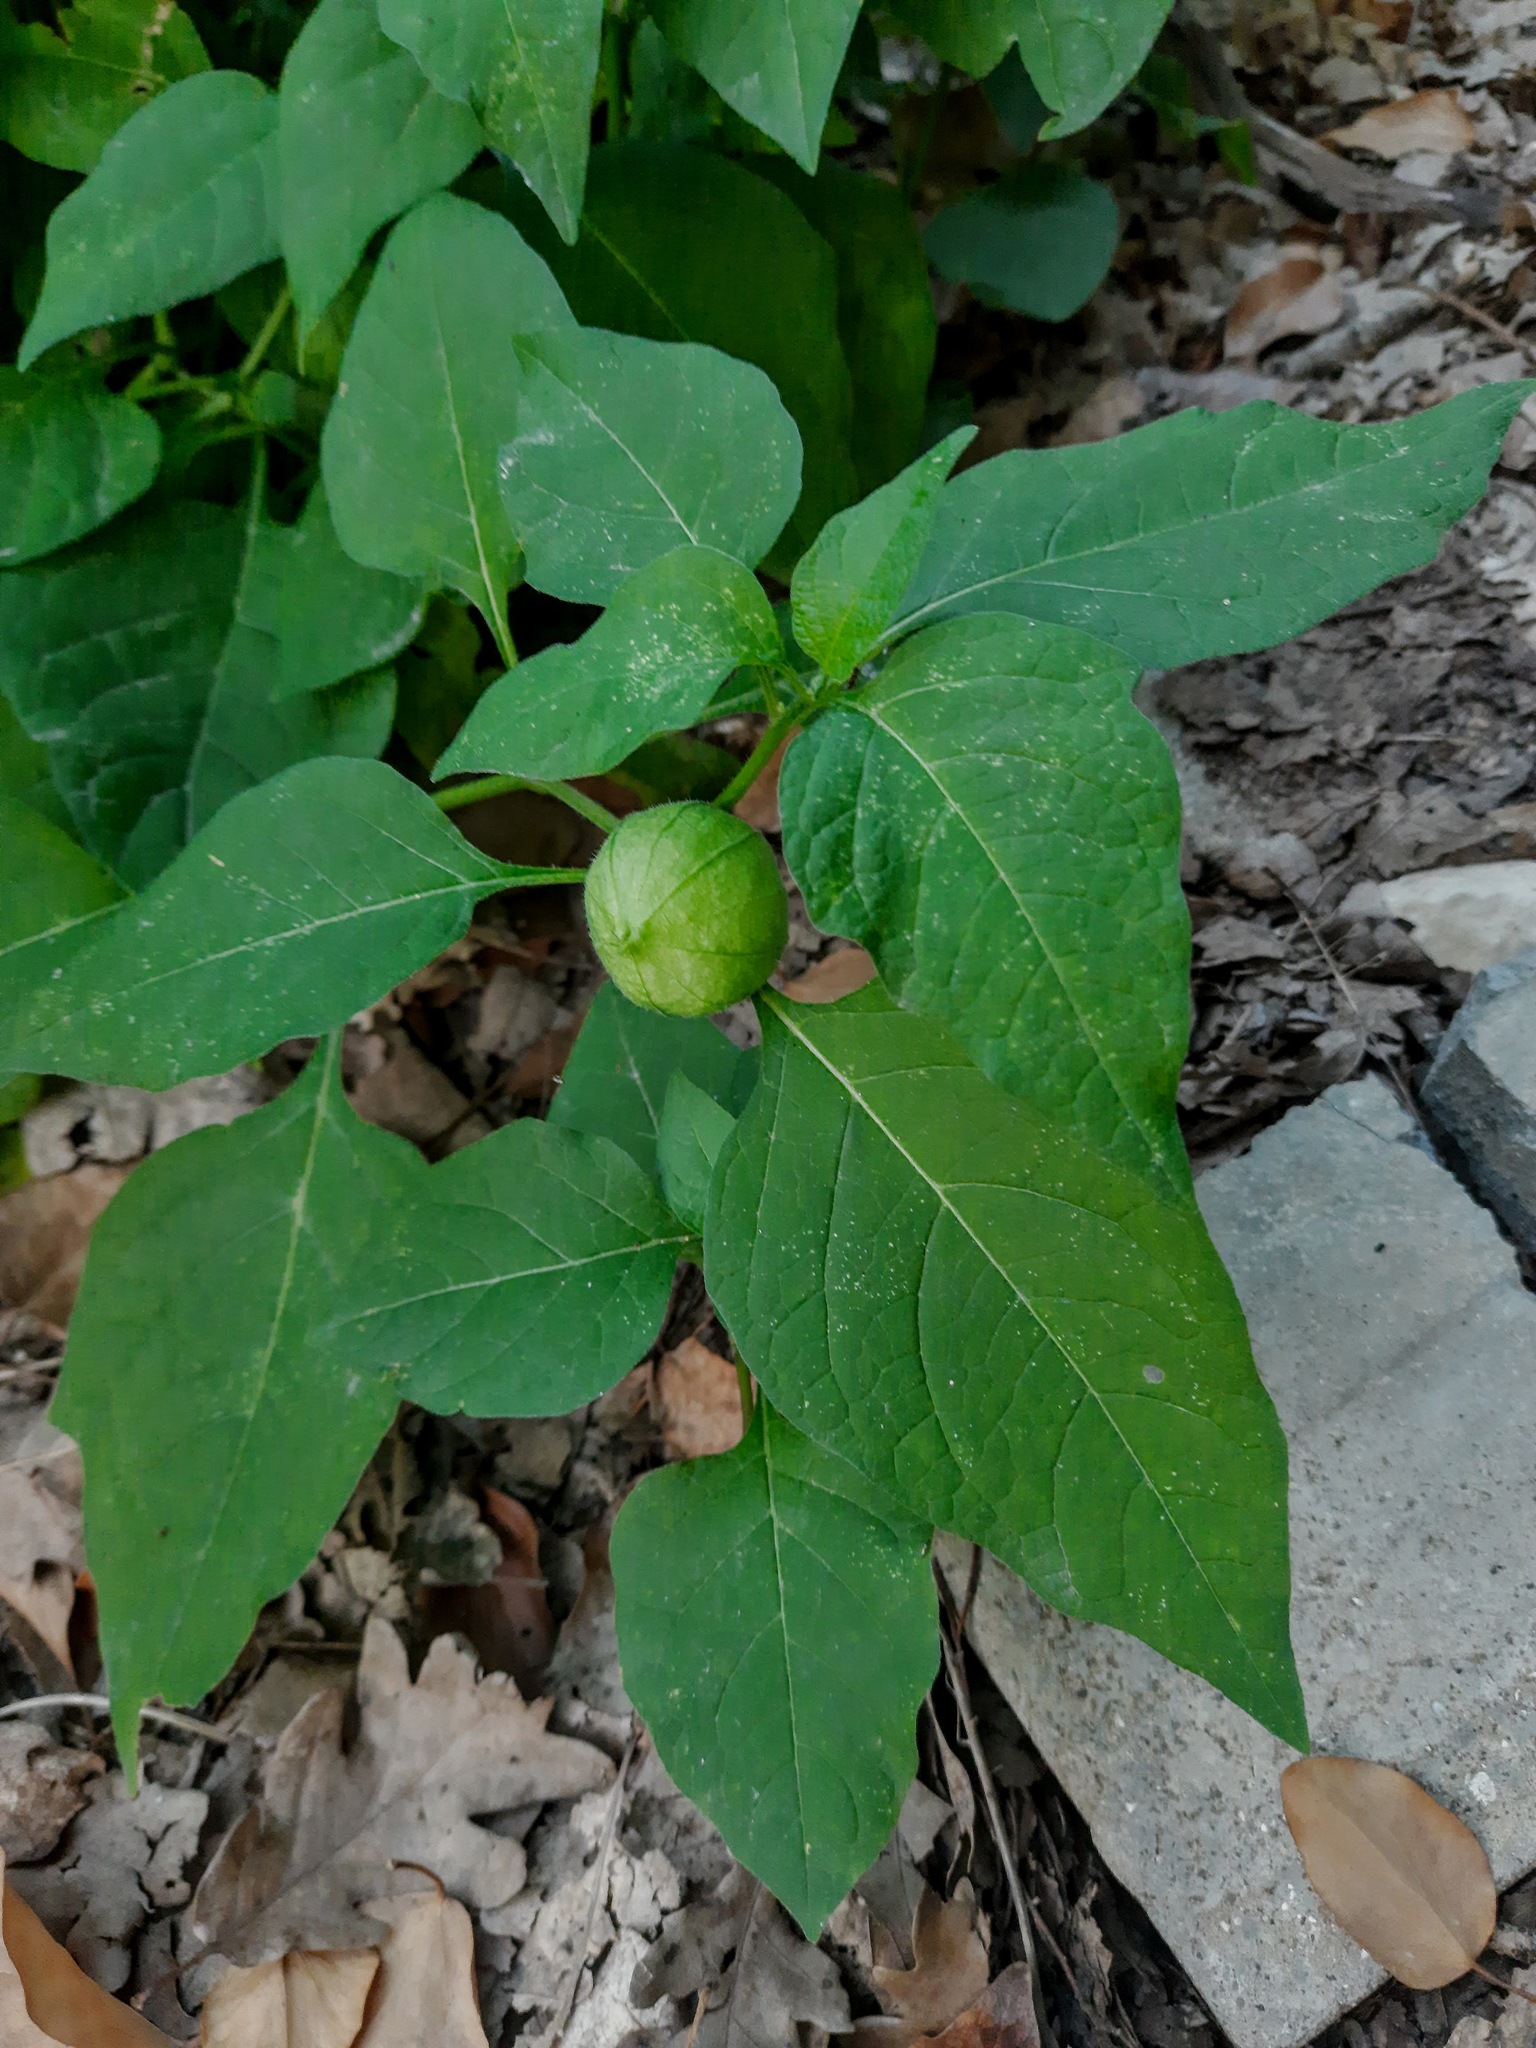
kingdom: Plantae
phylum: Tracheophyta
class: Magnoliopsida
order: Solanales
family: Solanaceae
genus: Alkekengi
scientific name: Alkekengi officinarum
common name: Japanese-lantern
